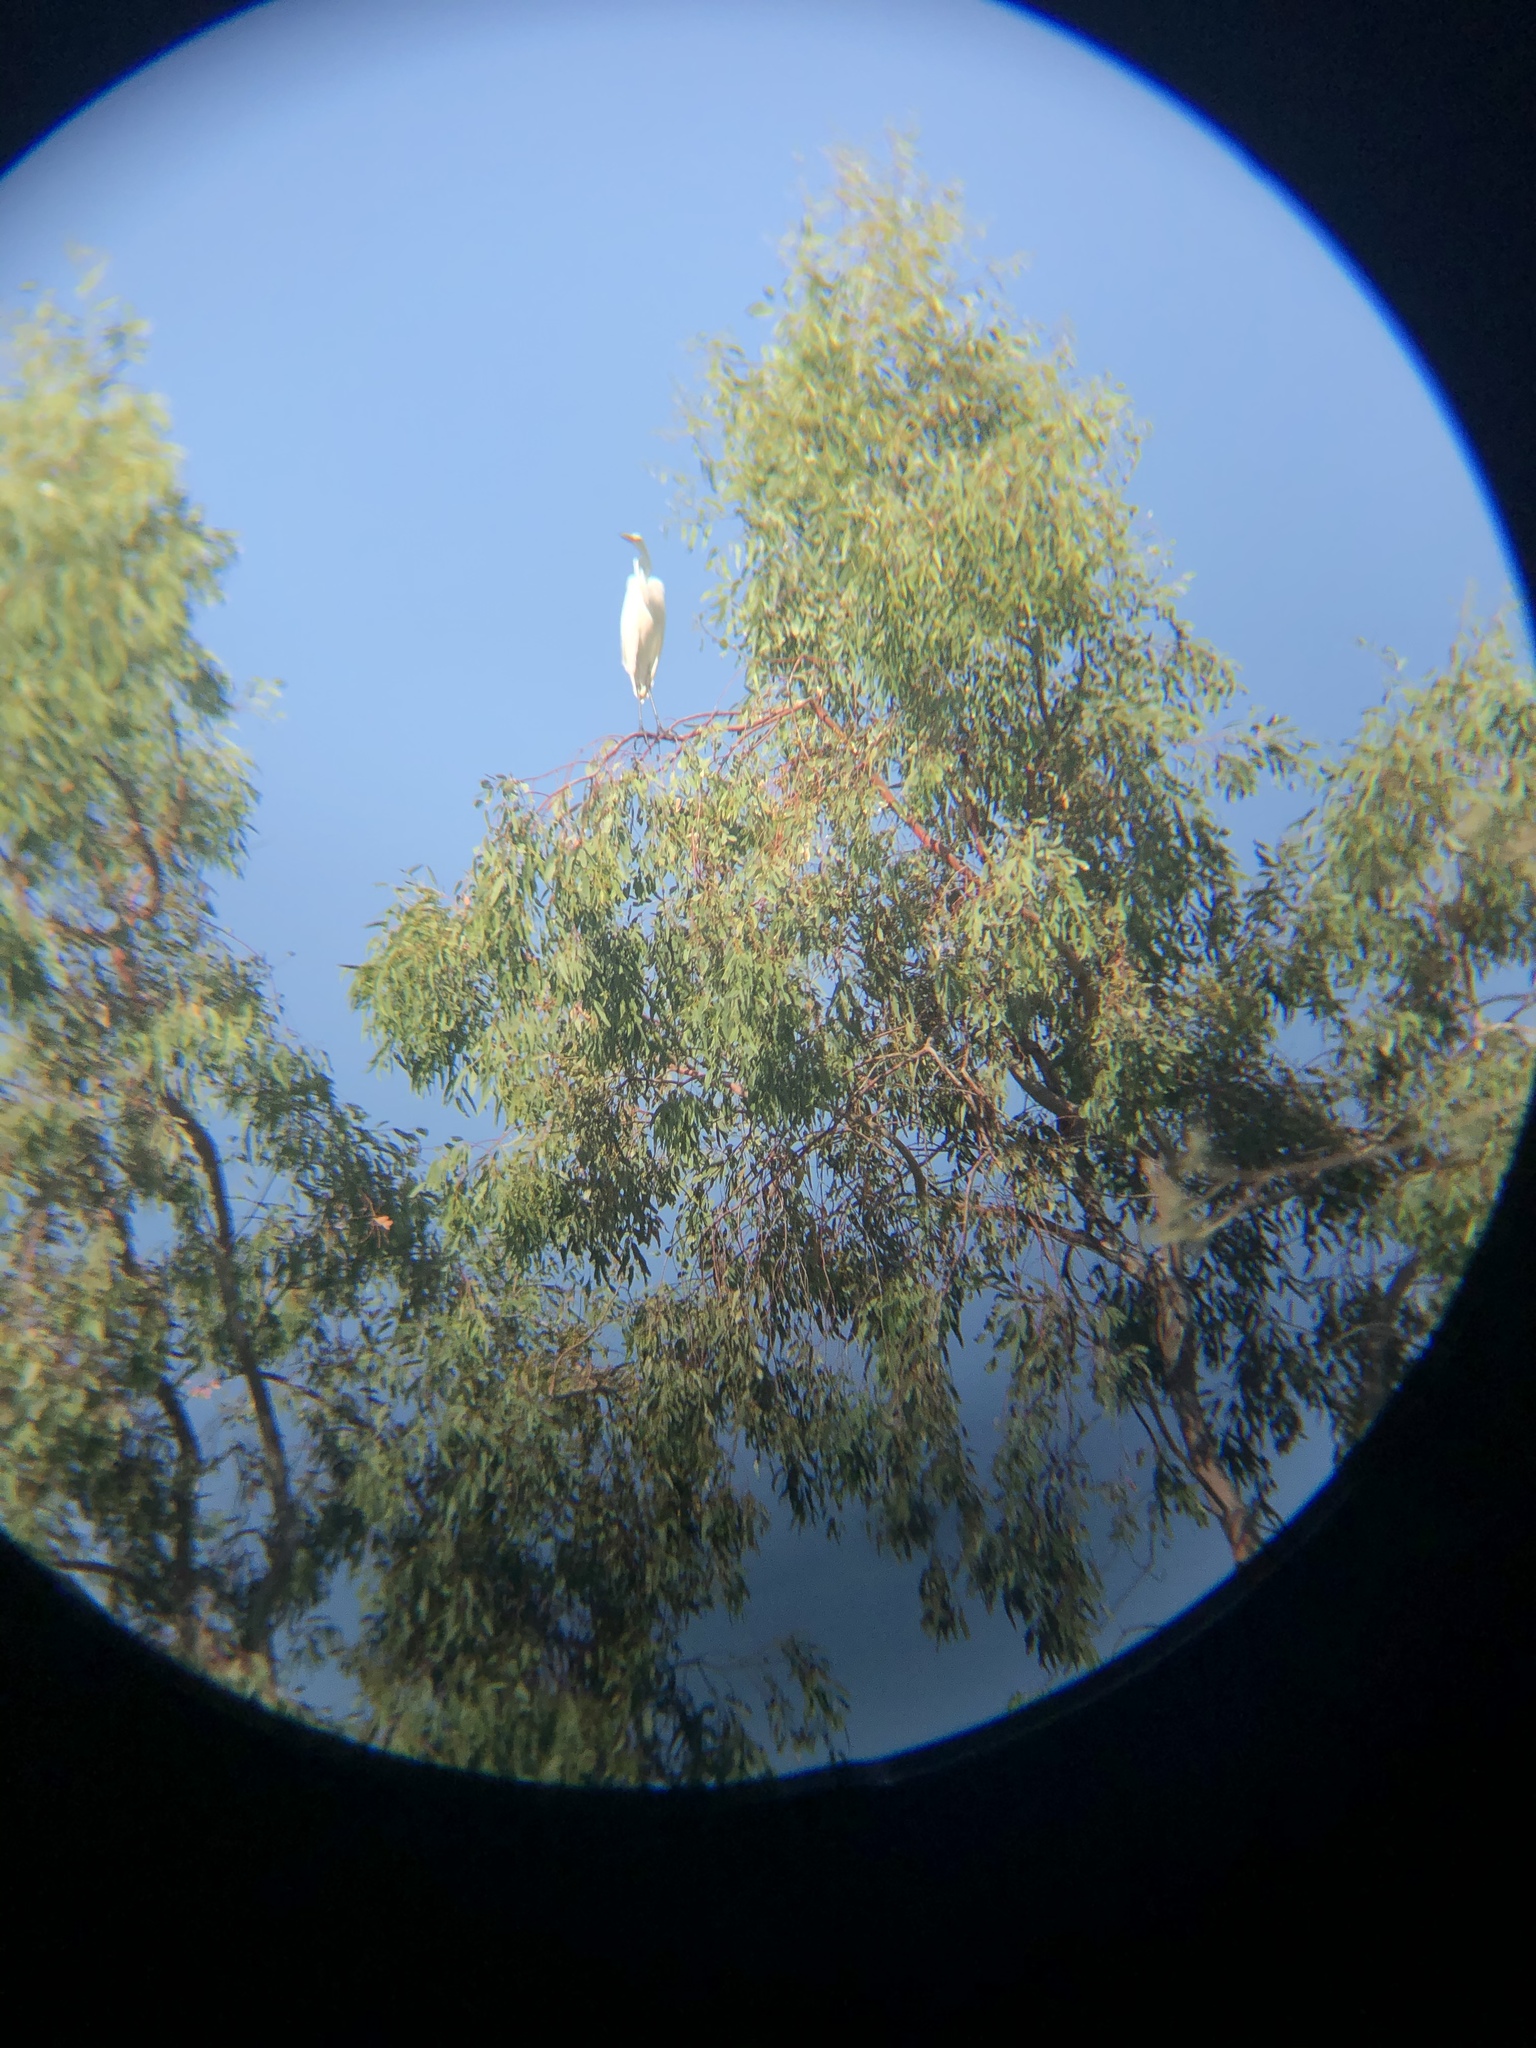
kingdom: Animalia
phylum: Chordata
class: Aves
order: Pelecaniformes
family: Ardeidae
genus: Ardea
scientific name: Ardea alba
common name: Great egret
